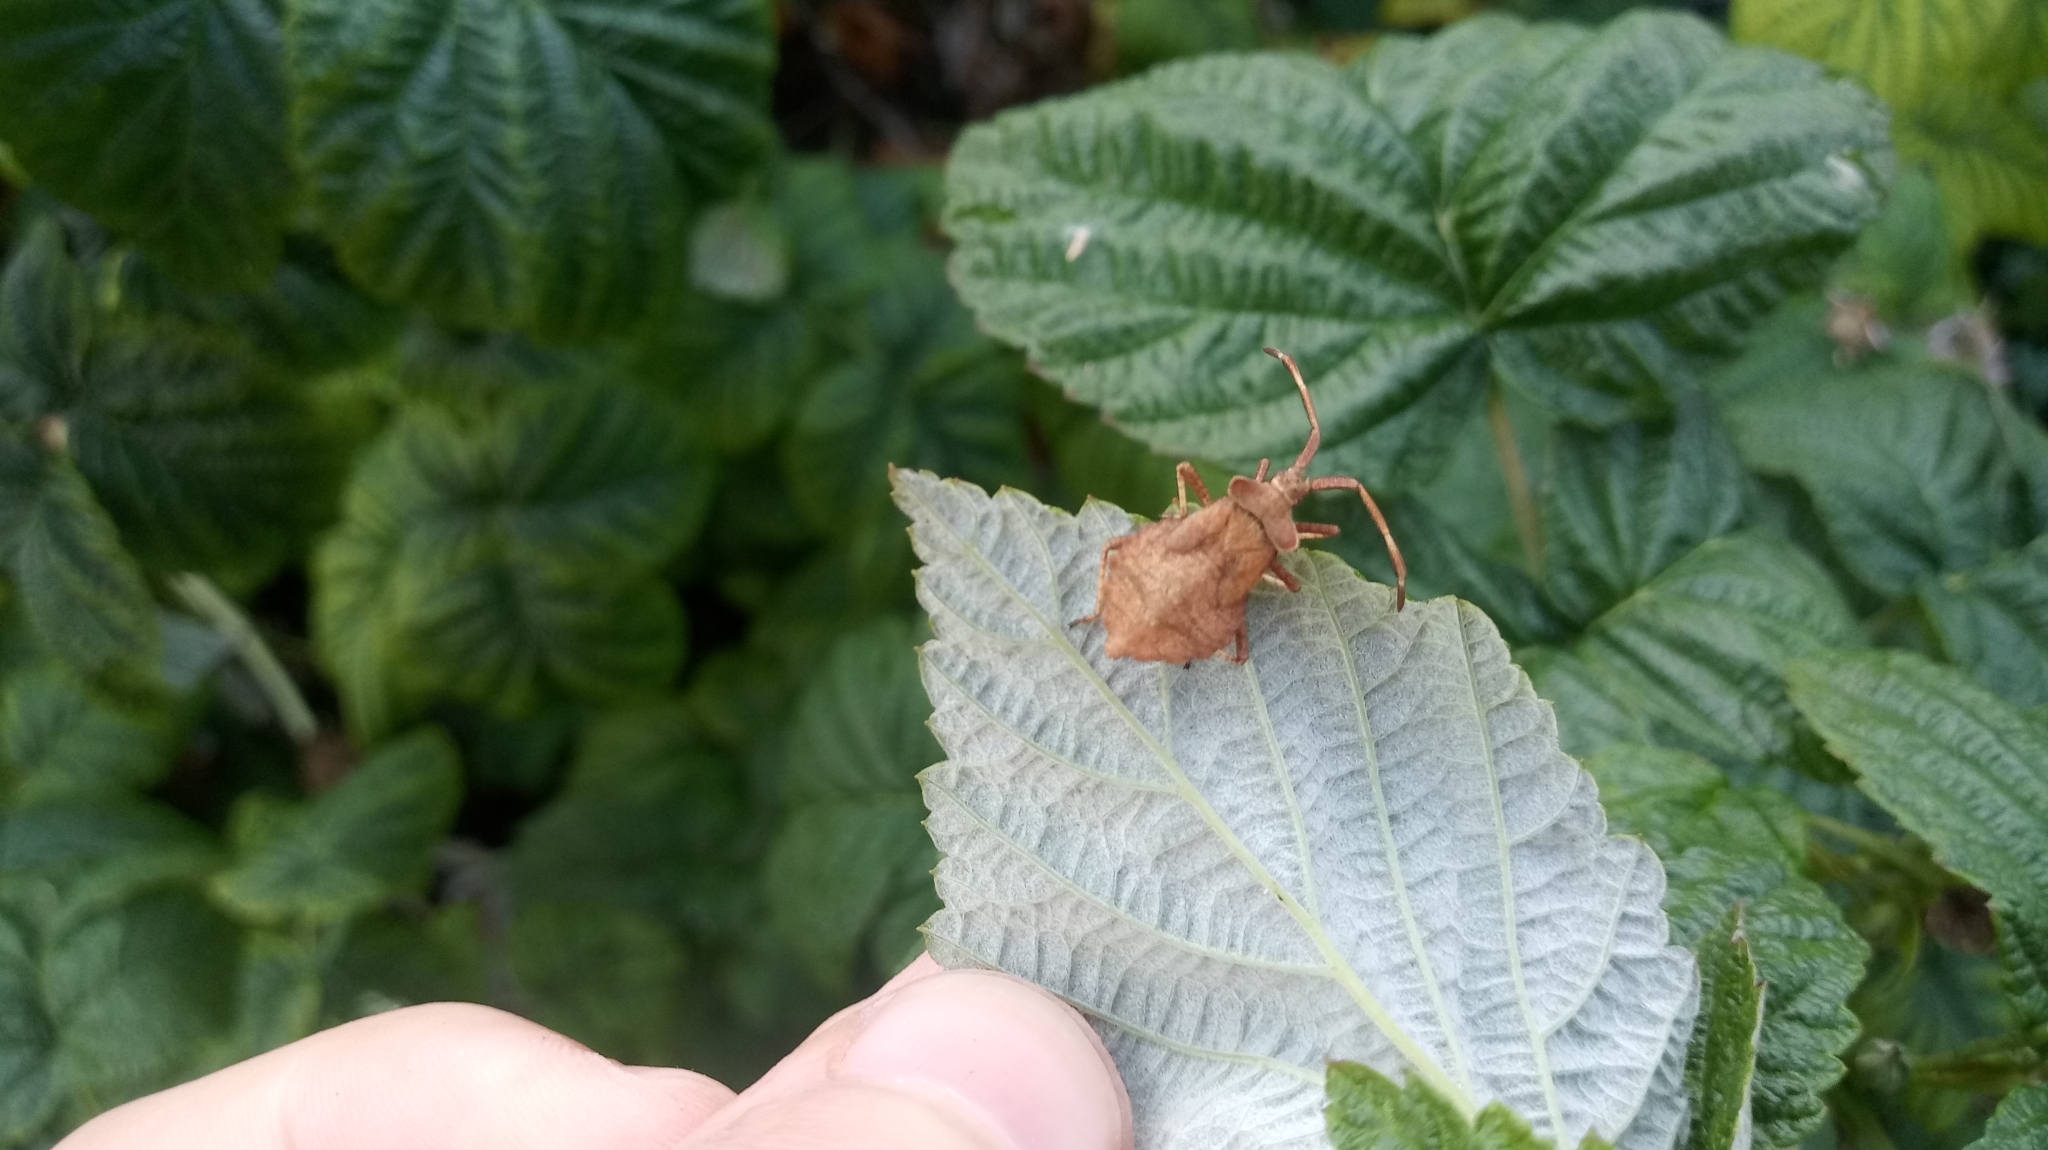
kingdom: Animalia
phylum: Arthropoda
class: Insecta
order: Hemiptera
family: Coreidae
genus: Coreus
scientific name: Coreus marginatus
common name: Dock bug
